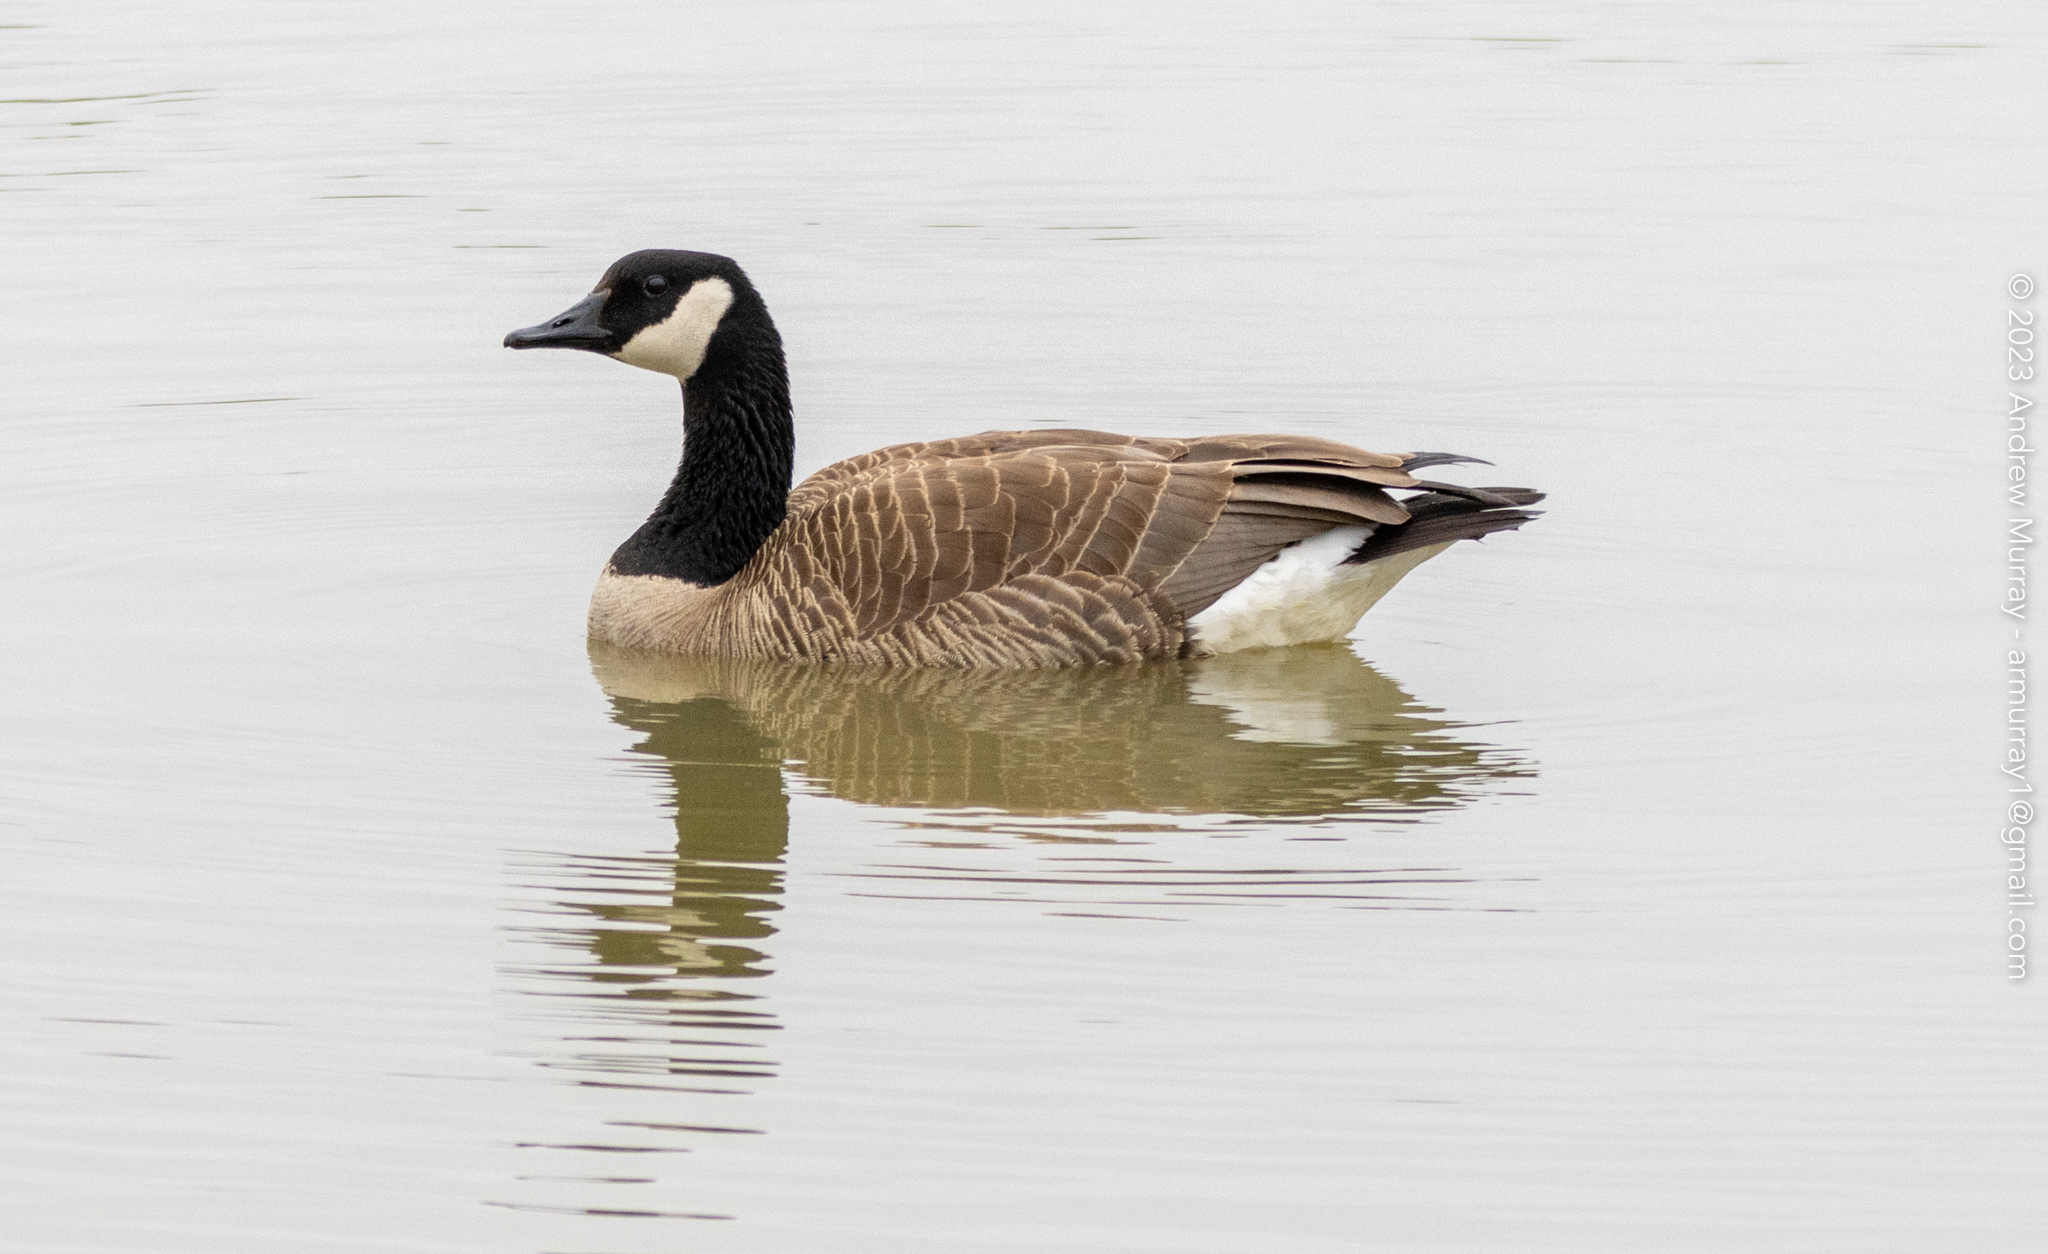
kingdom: Animalia
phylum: Chordata
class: Aves
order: Anseriformes
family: Anatidae
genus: Branta
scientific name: Branta canadensis
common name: Canada goose
